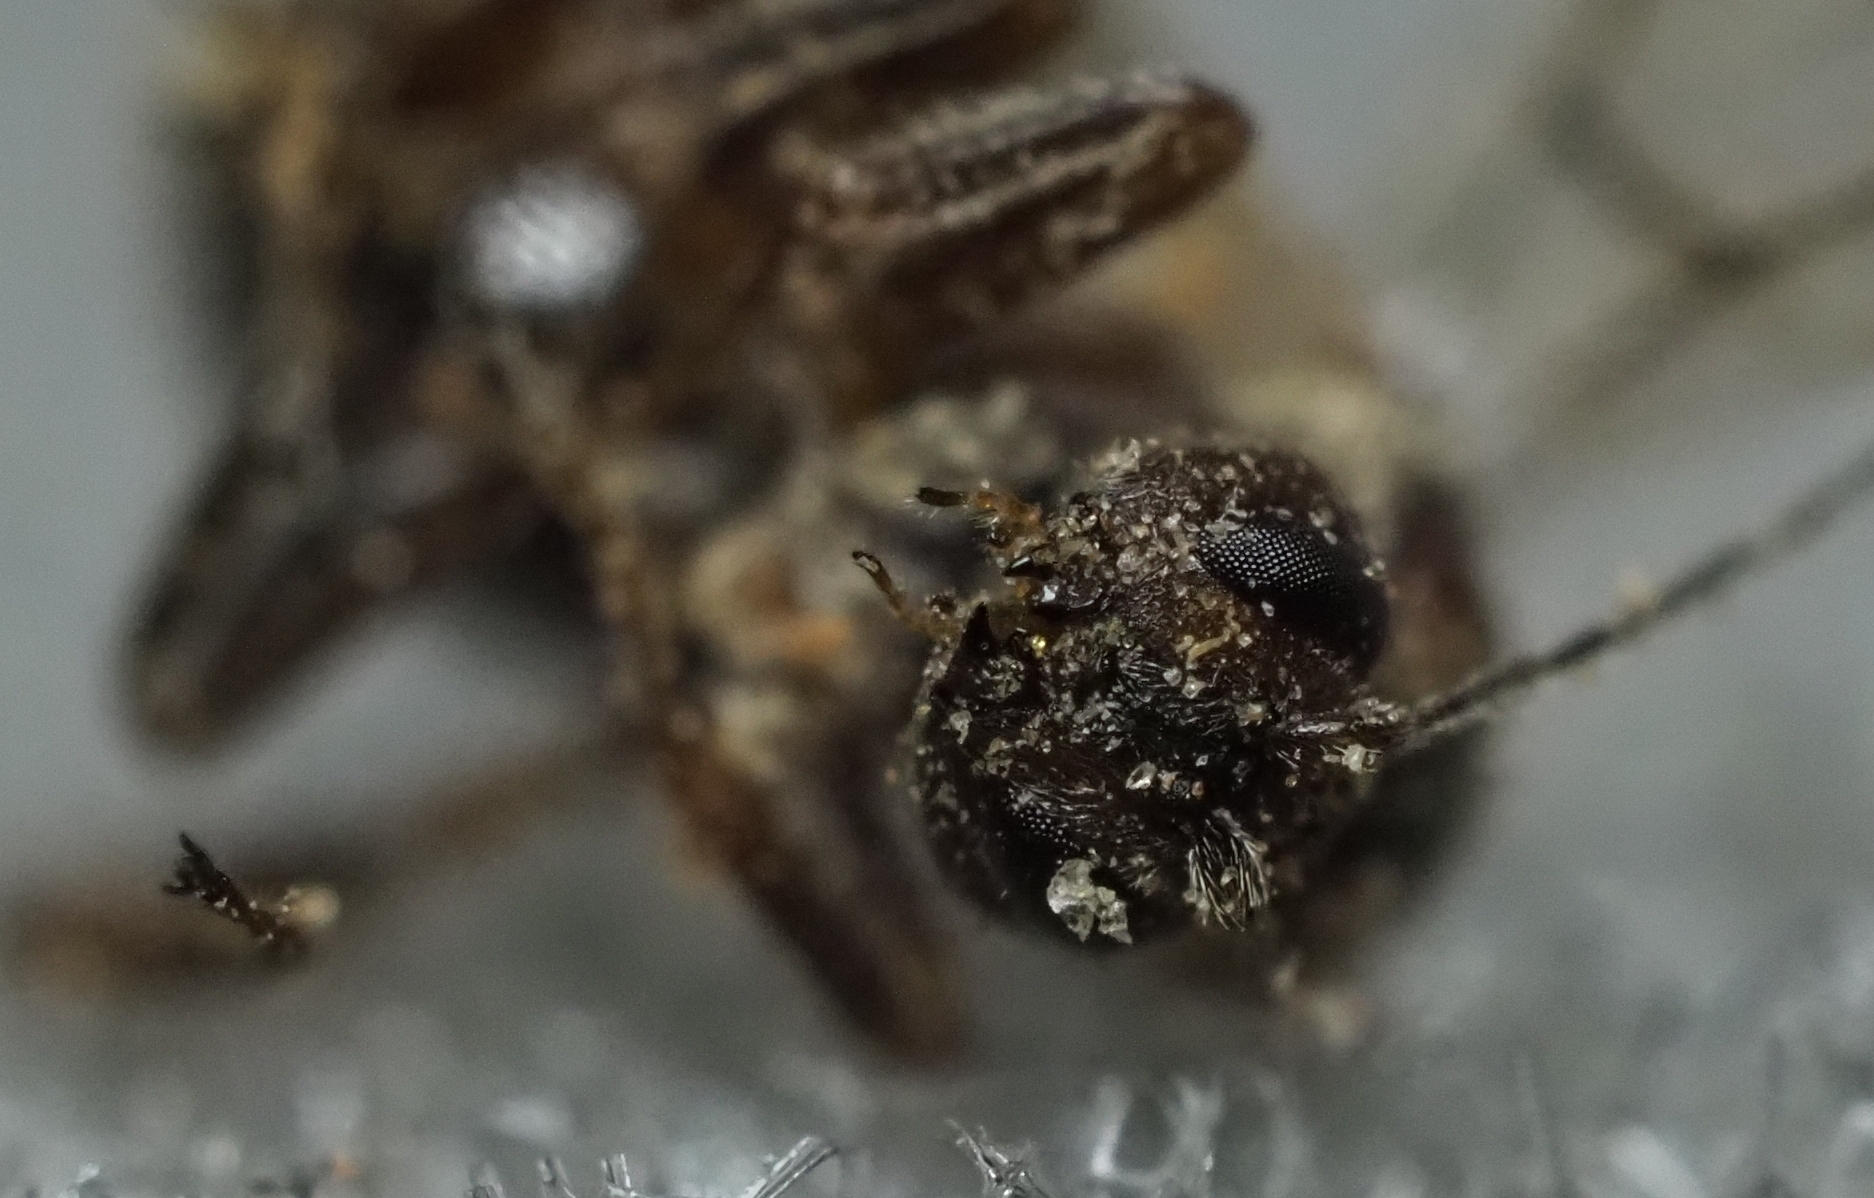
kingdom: Animalia
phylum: Arthropoda
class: Insecta
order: Hymenoptera
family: Cynipidae
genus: Disholcaspis
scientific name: Disholcaspis
